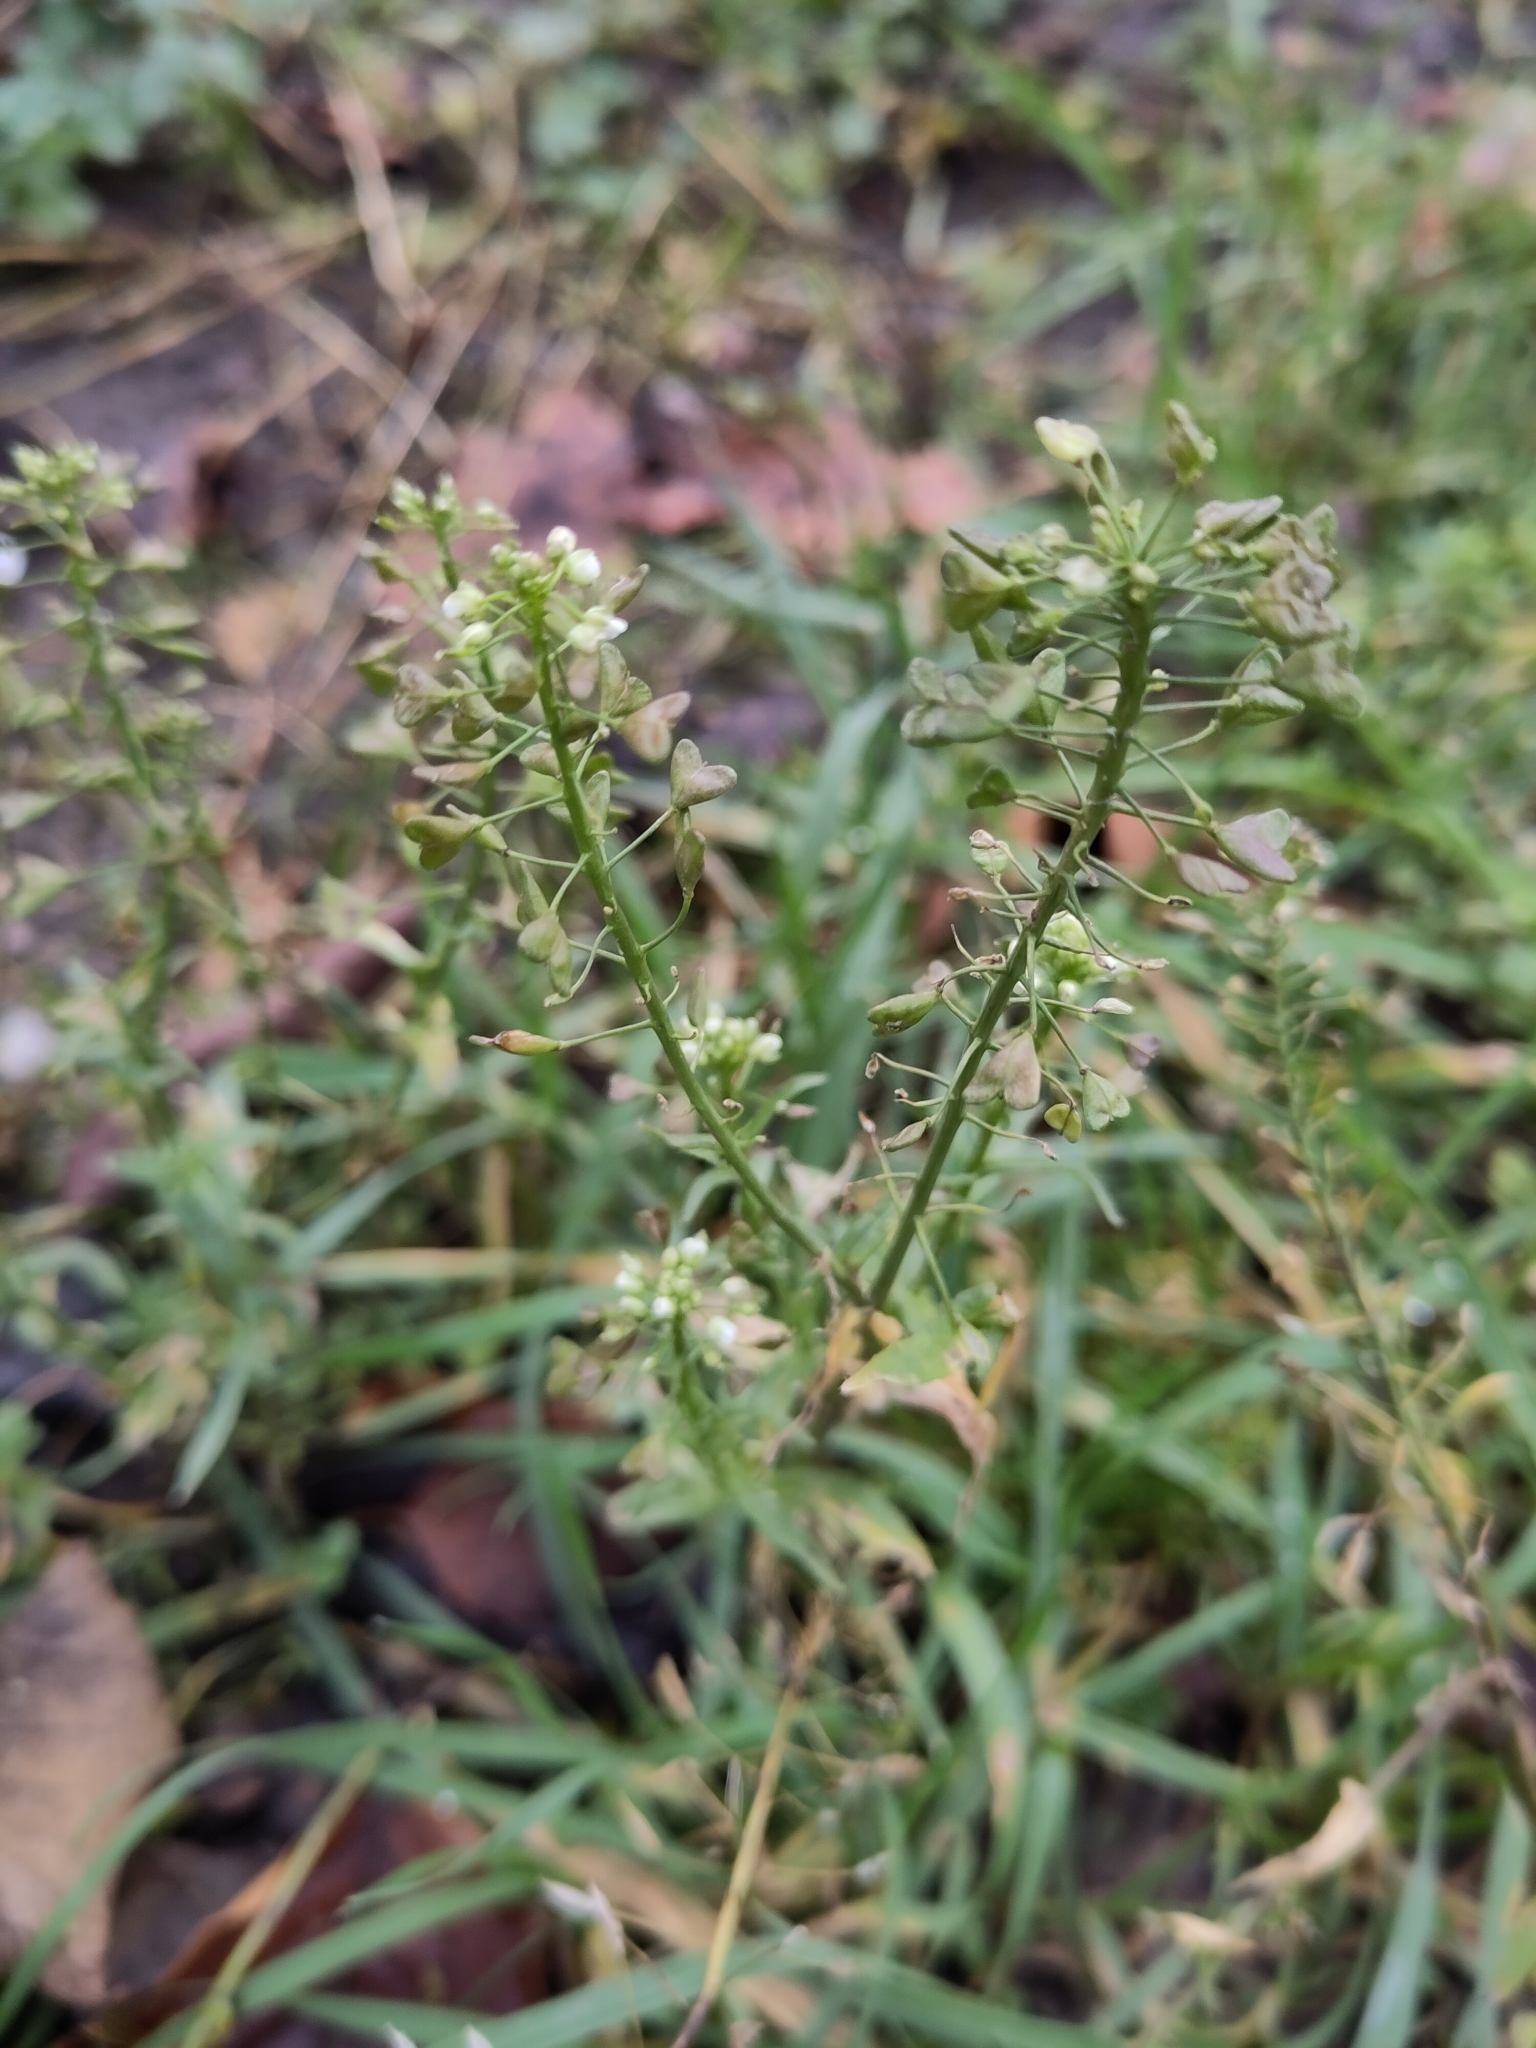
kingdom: Plantae
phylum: Tracheophyta
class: Magnoliopsida
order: Brassicales
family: Brassicaceae
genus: Capsella
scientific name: Capsella bursa-pastoris
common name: Shepherd's purse
